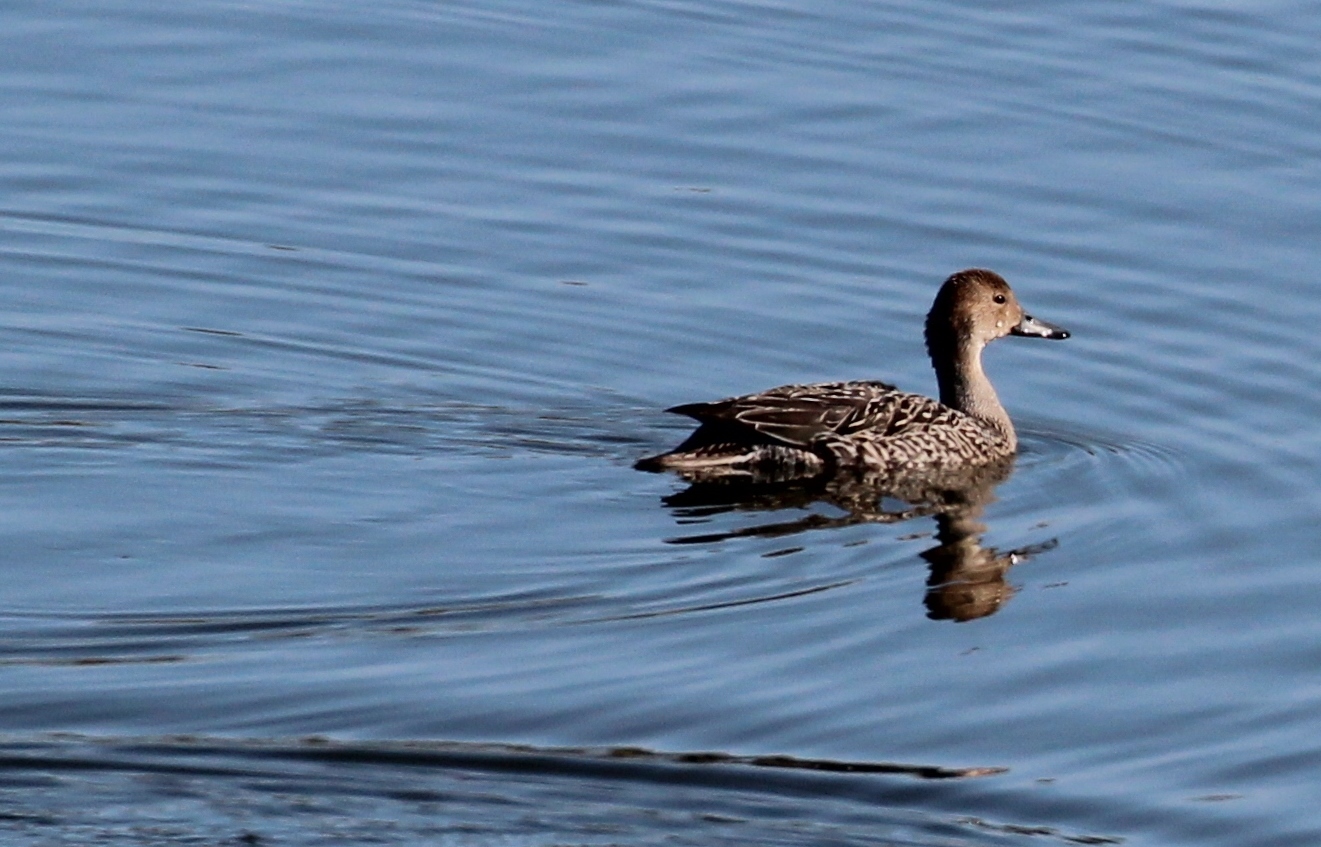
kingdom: Animalia
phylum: Chordata
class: Aves
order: Anseriformes
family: Anatidae
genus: Anas
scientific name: Anas acuta
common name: Northern pintail
